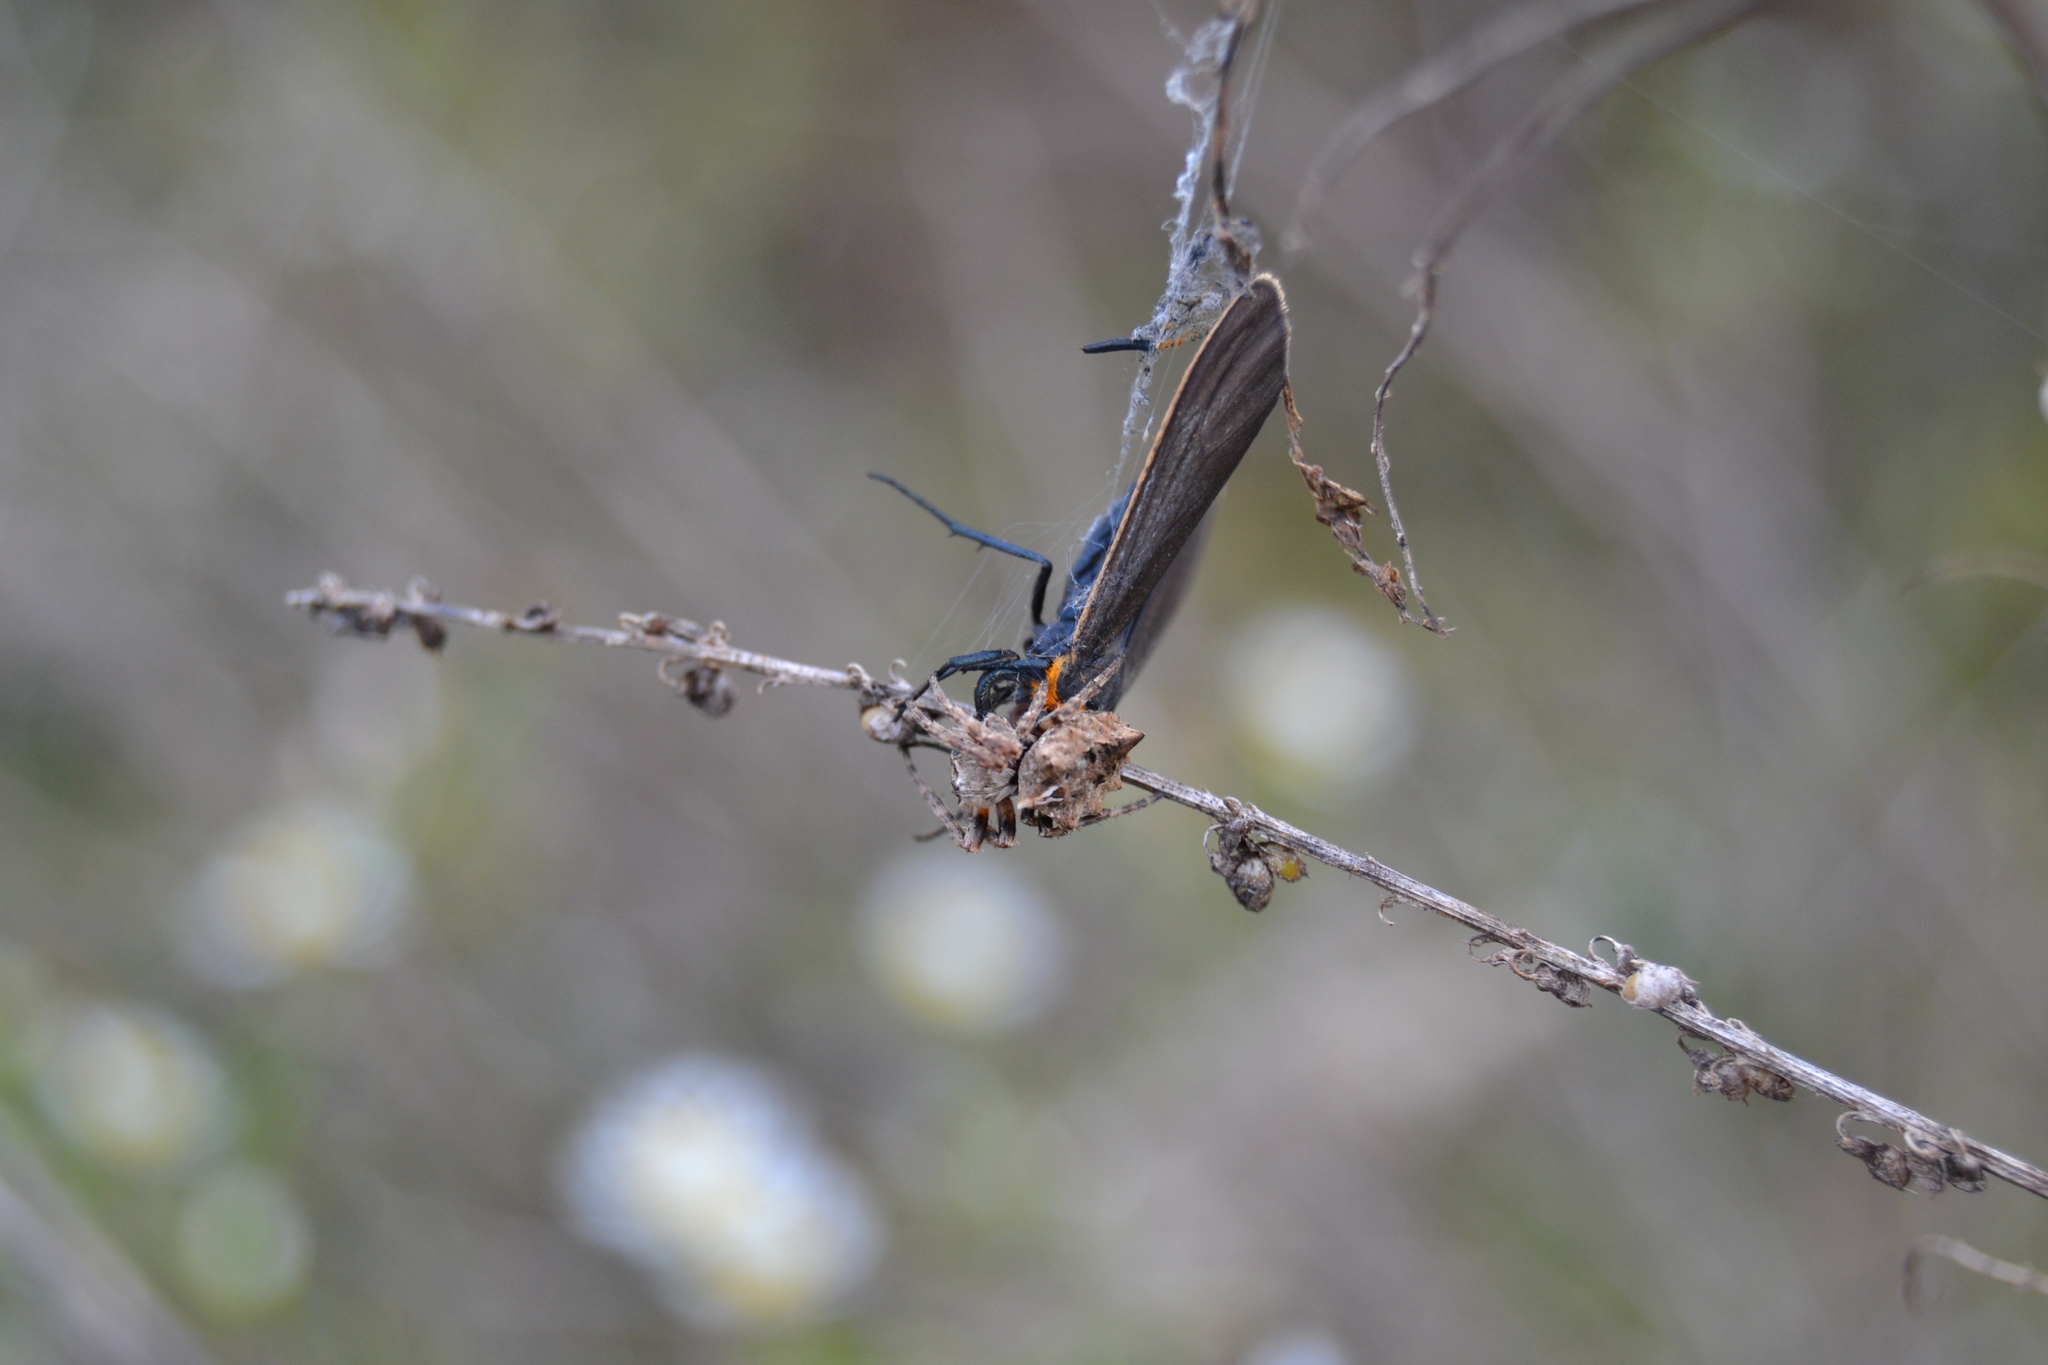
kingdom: Animalia
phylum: Arthropoda
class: Arachnida
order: Araneae
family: Araneidae
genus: Acanthepeira
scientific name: Acanthepeira stellata
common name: Starbellied orbweaver
